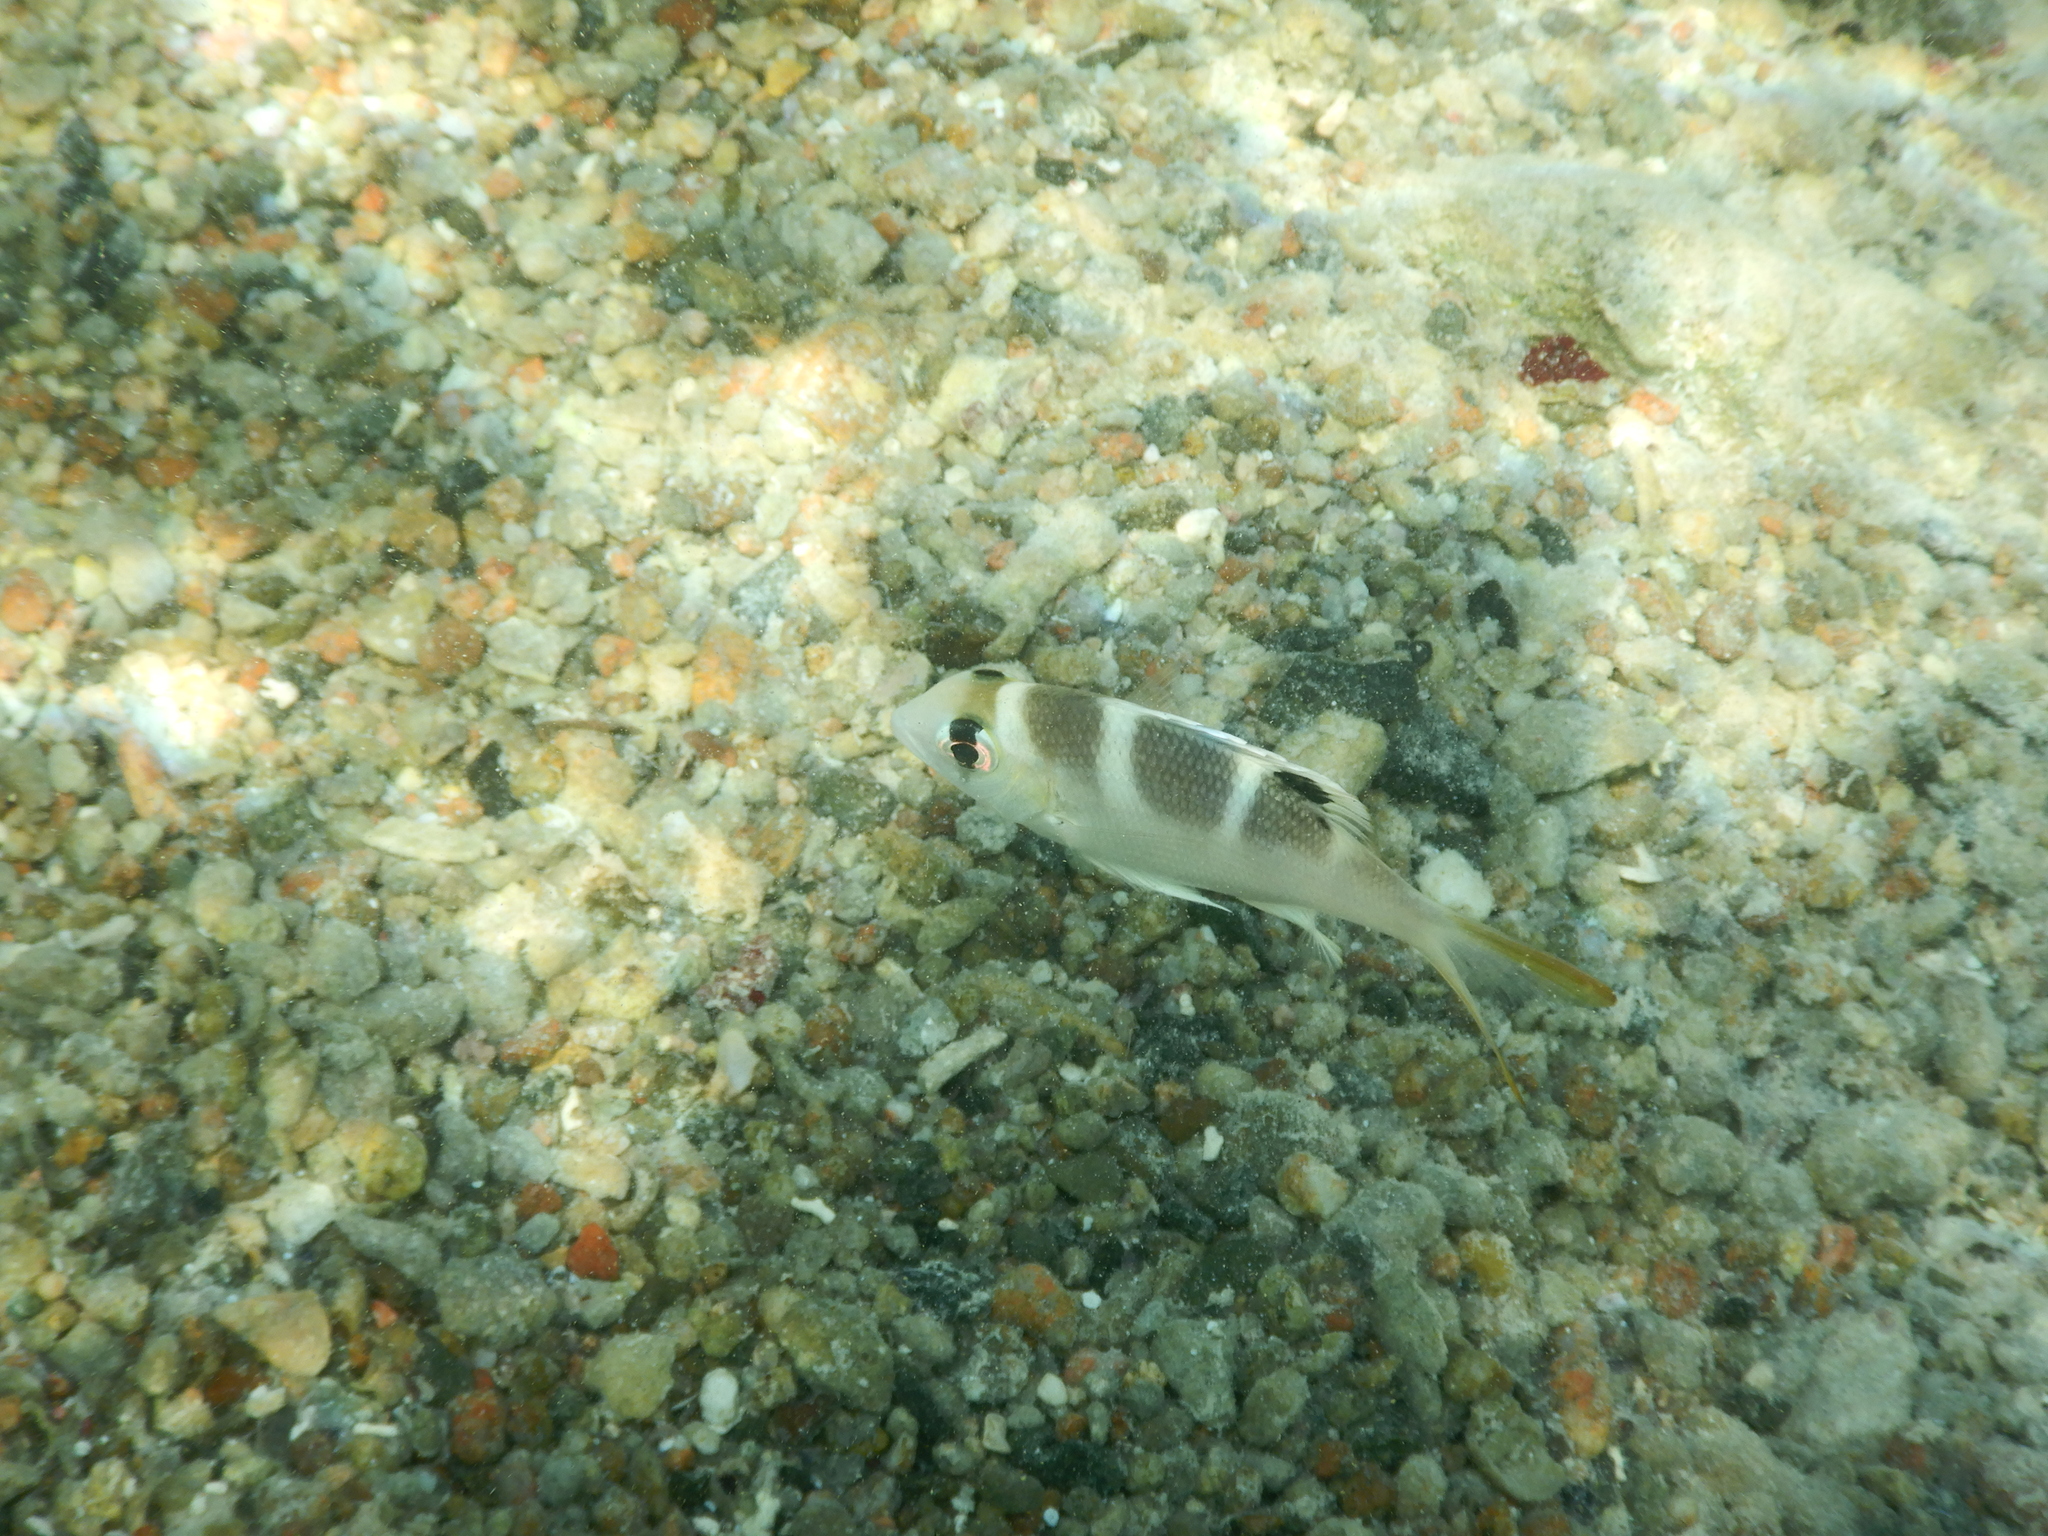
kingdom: Animalia
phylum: Chordata
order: Perciformes
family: Lethrinidae
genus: Monotaxis
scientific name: Monotaxis grandoculis
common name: Bigeye emperor
